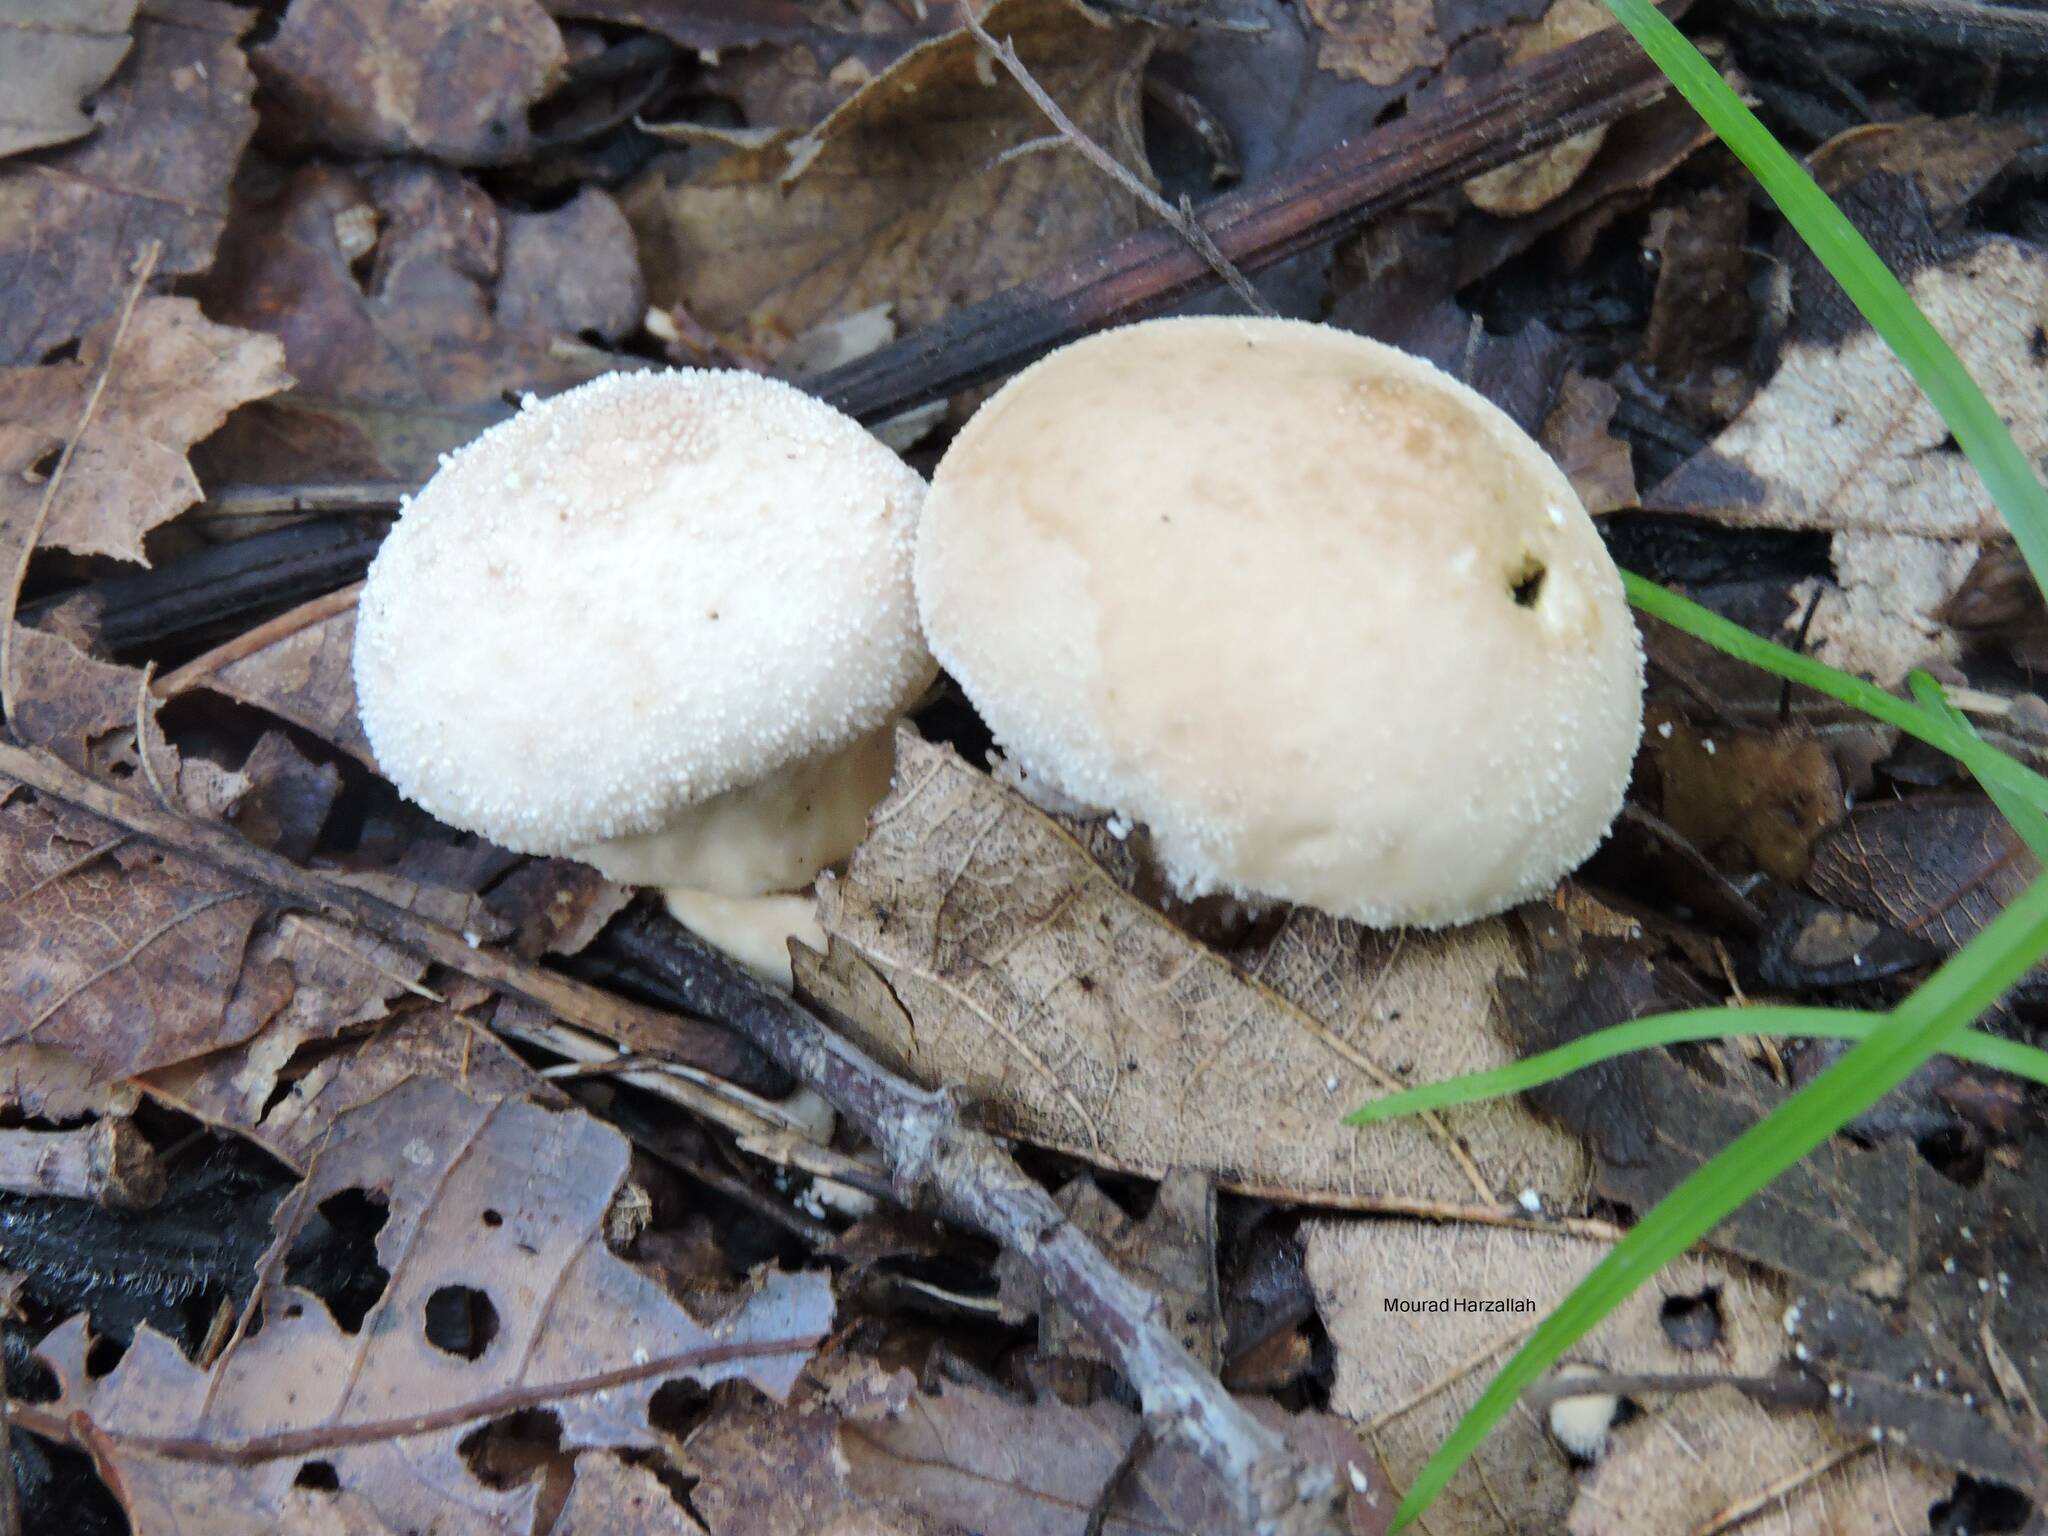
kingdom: Fungi
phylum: Basidiomycota
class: Agaricomycetes
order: Agaricales
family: Lycoperdaceae
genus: Lycoperdon
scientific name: Lycoperdon perlatum
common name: Common puffball
